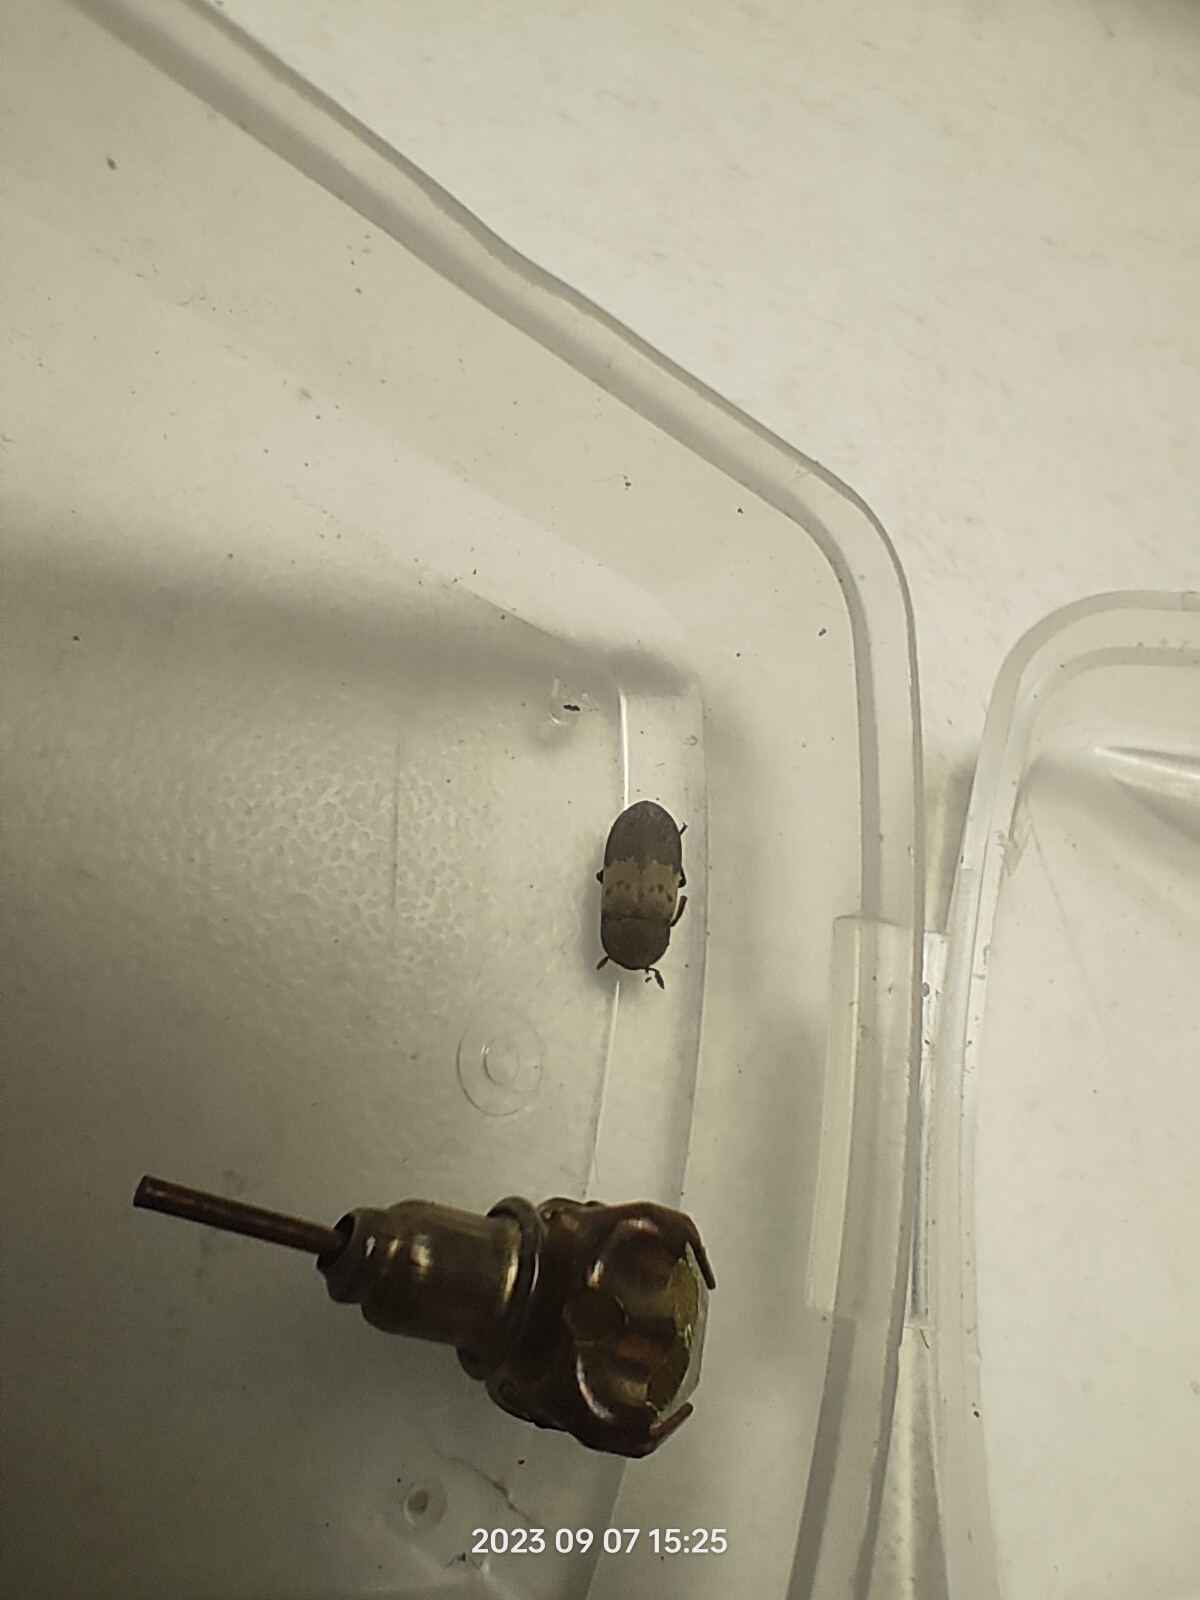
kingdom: Animalia
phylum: Arthropoda
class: Insecta
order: Coleoptera
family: Dermestidae
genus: Dermestes
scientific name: Dermestes lardarius
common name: Larder beetle
